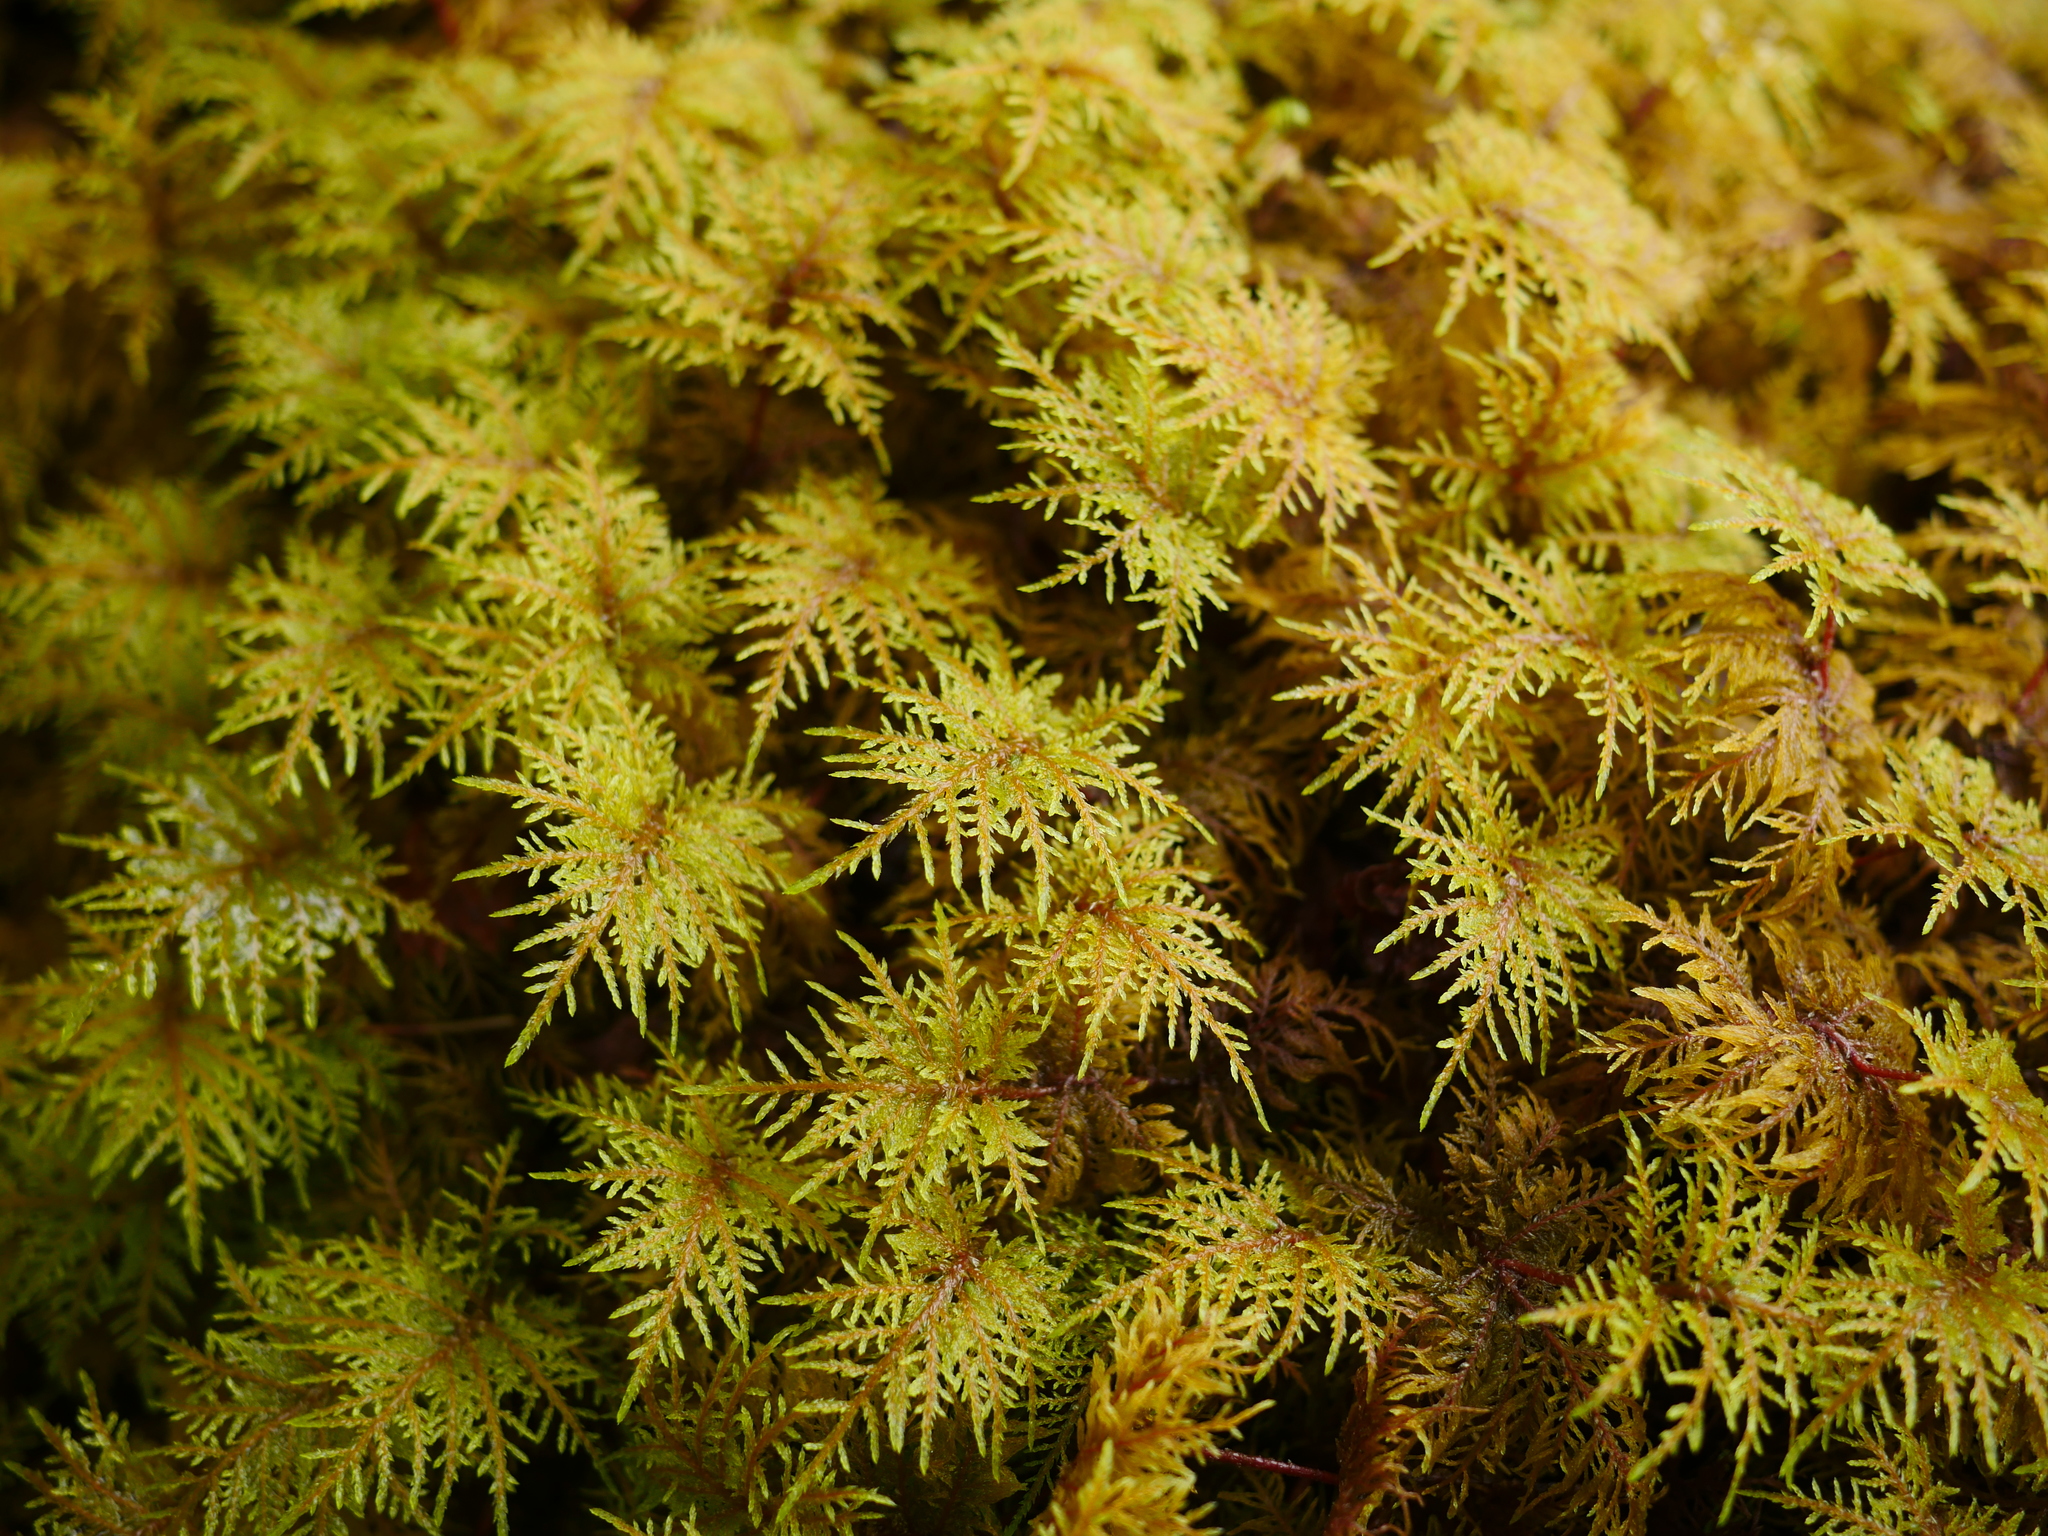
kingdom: Plantae
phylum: Bryophyta
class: Bryopsida
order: Hypnales
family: Hylocomiaceae
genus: Hylocomium
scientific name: Hylocomium splendens
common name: Stairstep moss
